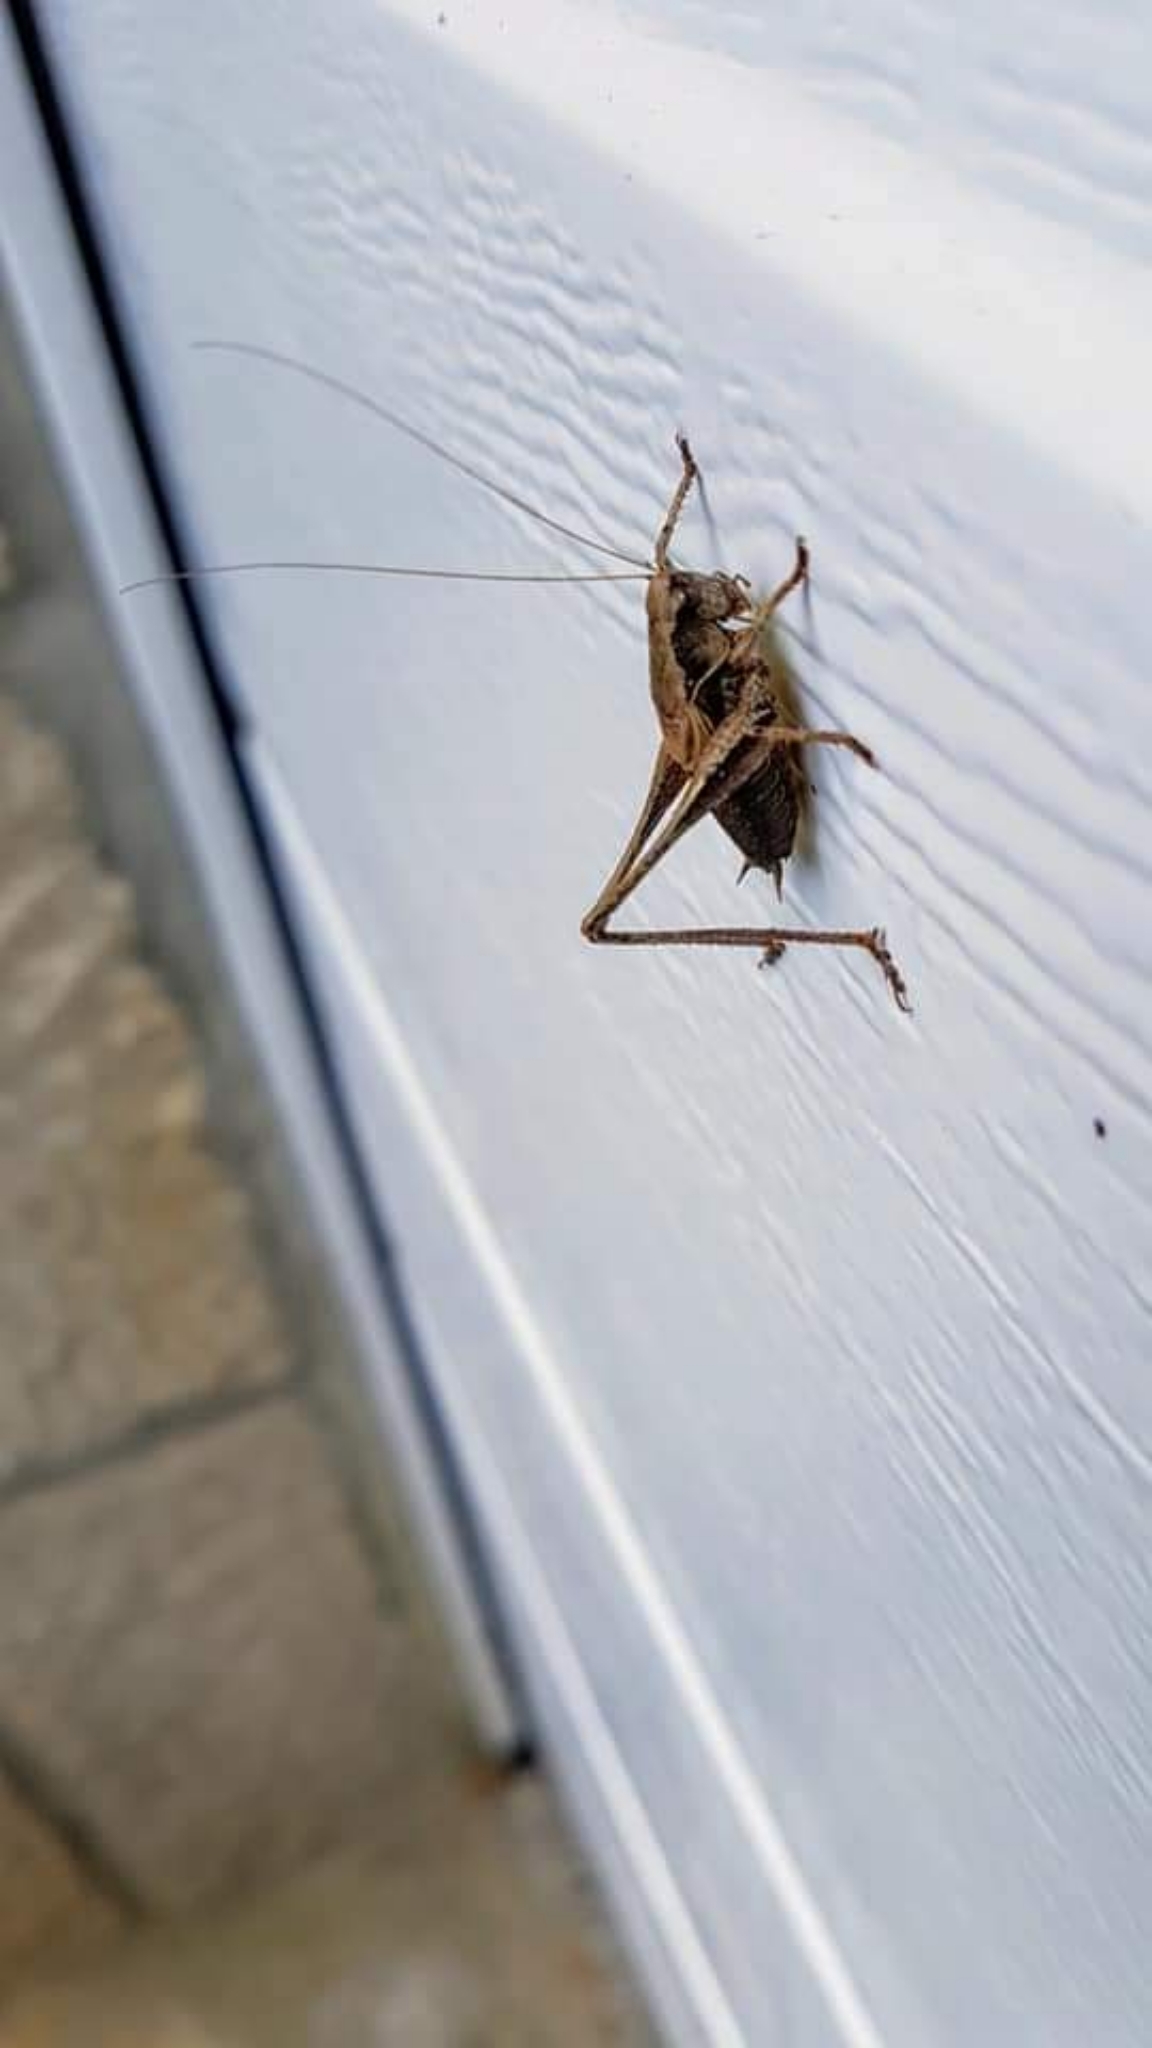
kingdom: Animalia
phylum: Arthropoda
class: Insecta
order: Orthoptera
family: Tettigoniidae
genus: Pholidoptera
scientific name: Pholidoptera griseoaptera
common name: Dark bush-cricket
